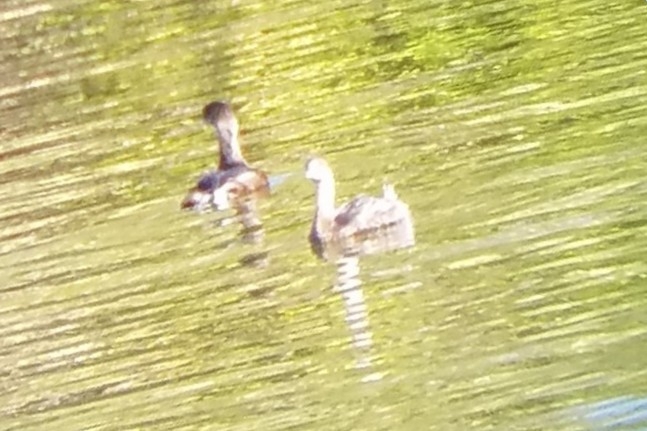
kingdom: Animalia
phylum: Chordata
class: Aves
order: Podicipediformes
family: Podicipedidae
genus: Podilymbus
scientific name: Podilymbus podiceps
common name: Pied-billed grebe
